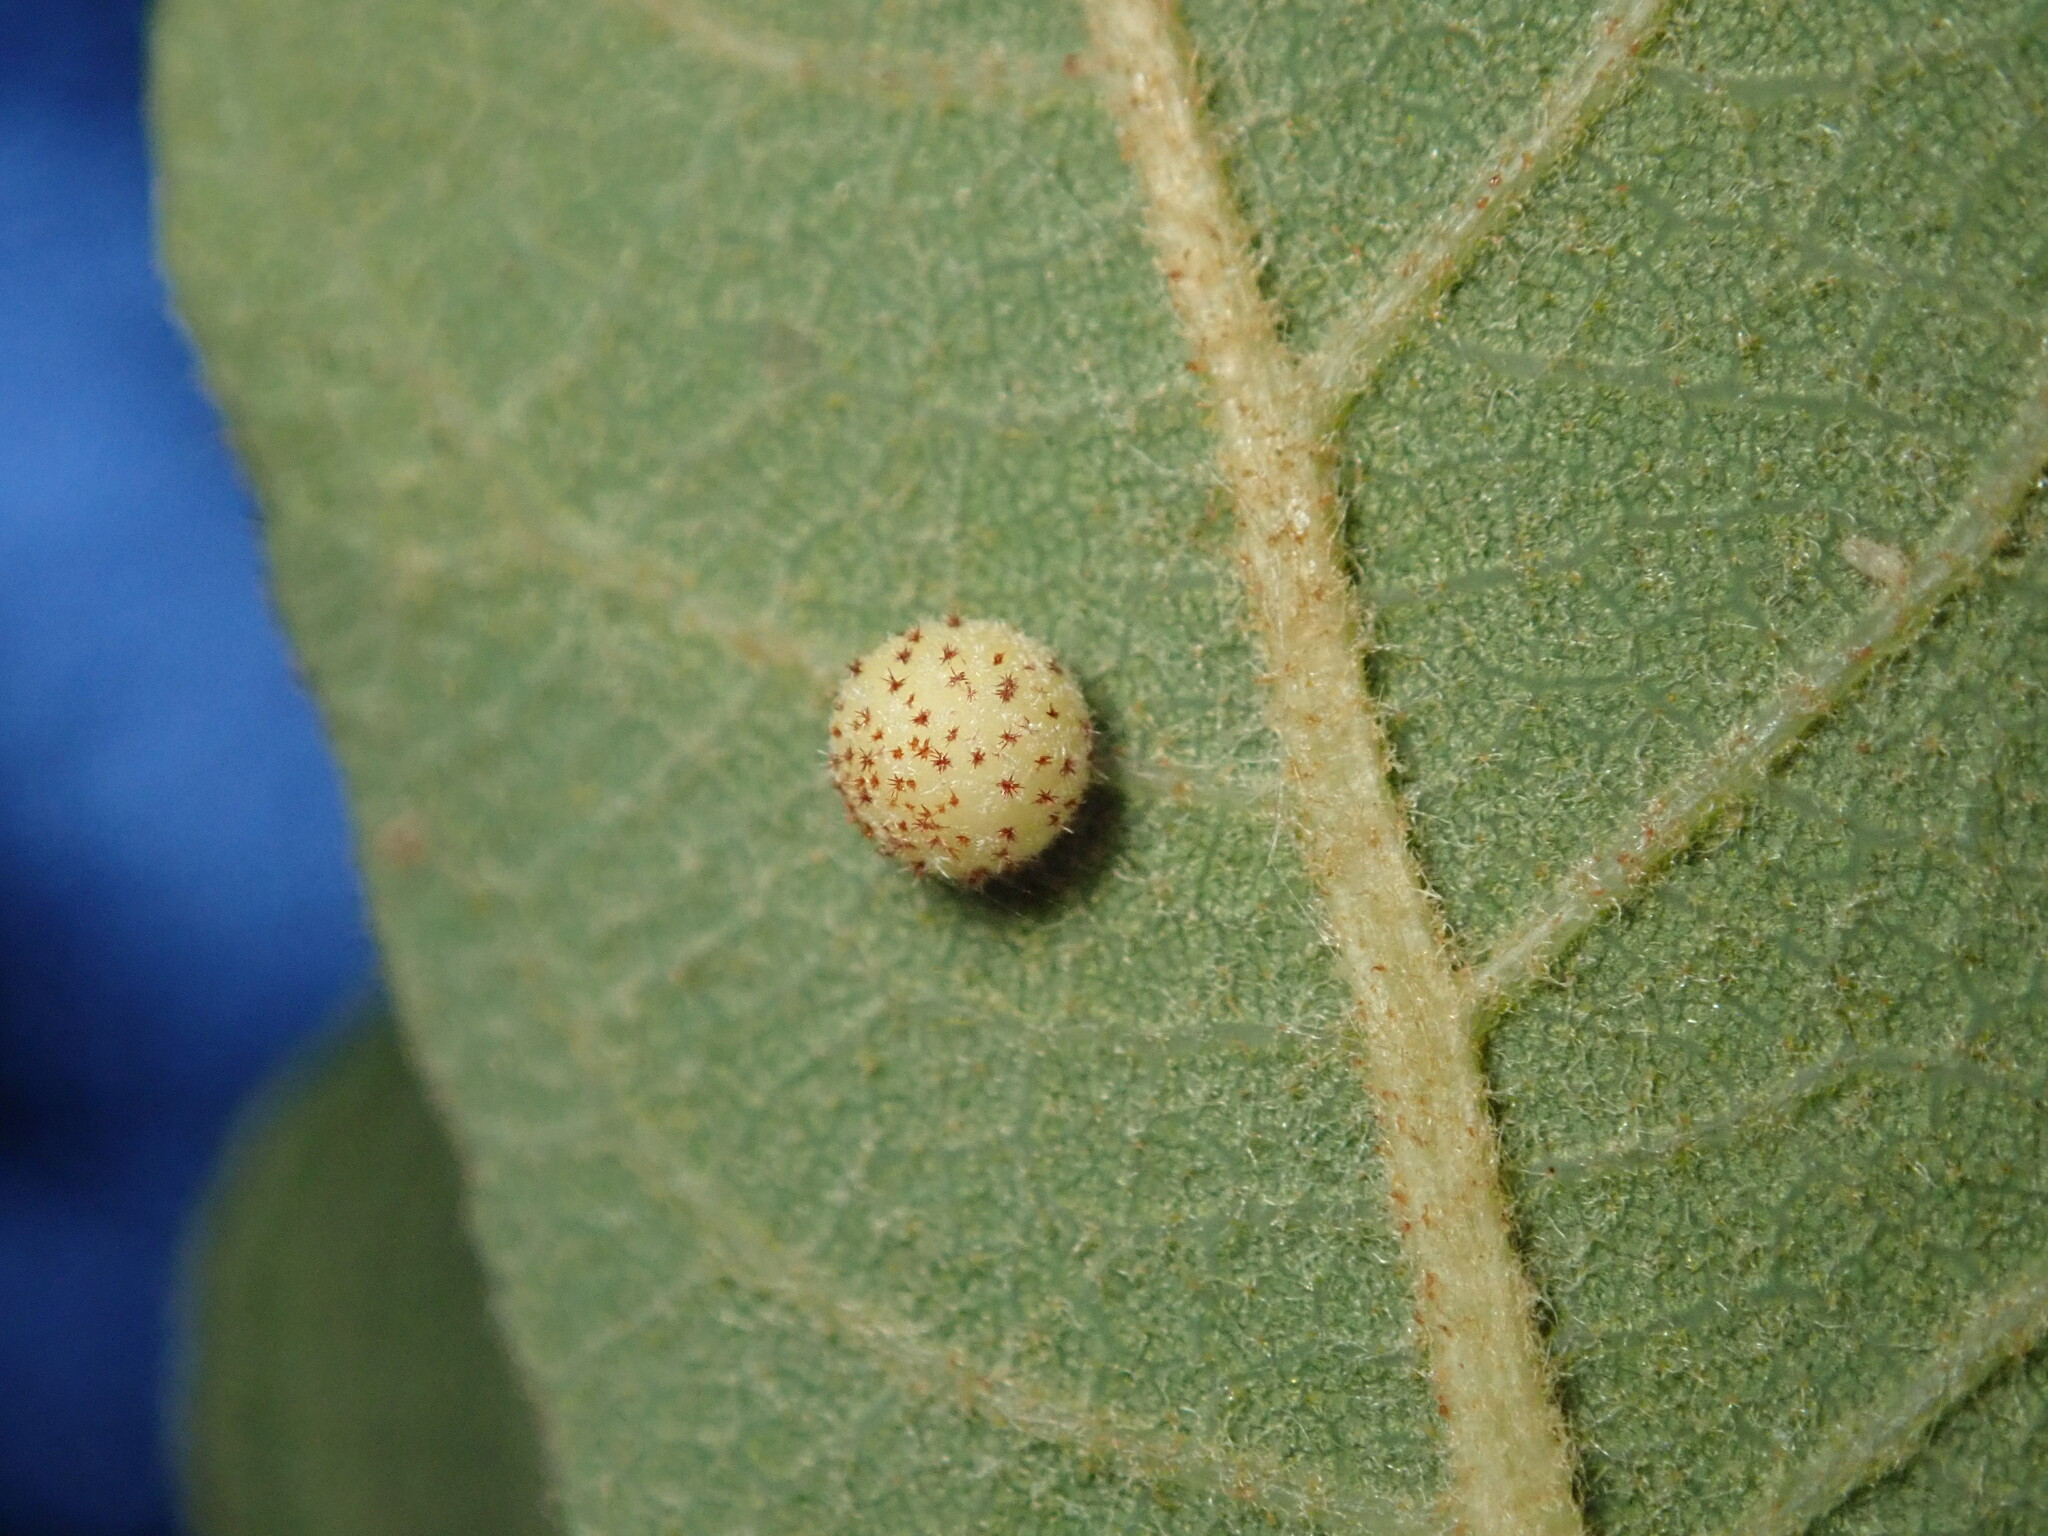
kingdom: Animalia
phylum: Arthropoda
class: Insecta
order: Hymenoptera
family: Cynipidae
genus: Cynips
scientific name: Cynips Antron tomkursari
